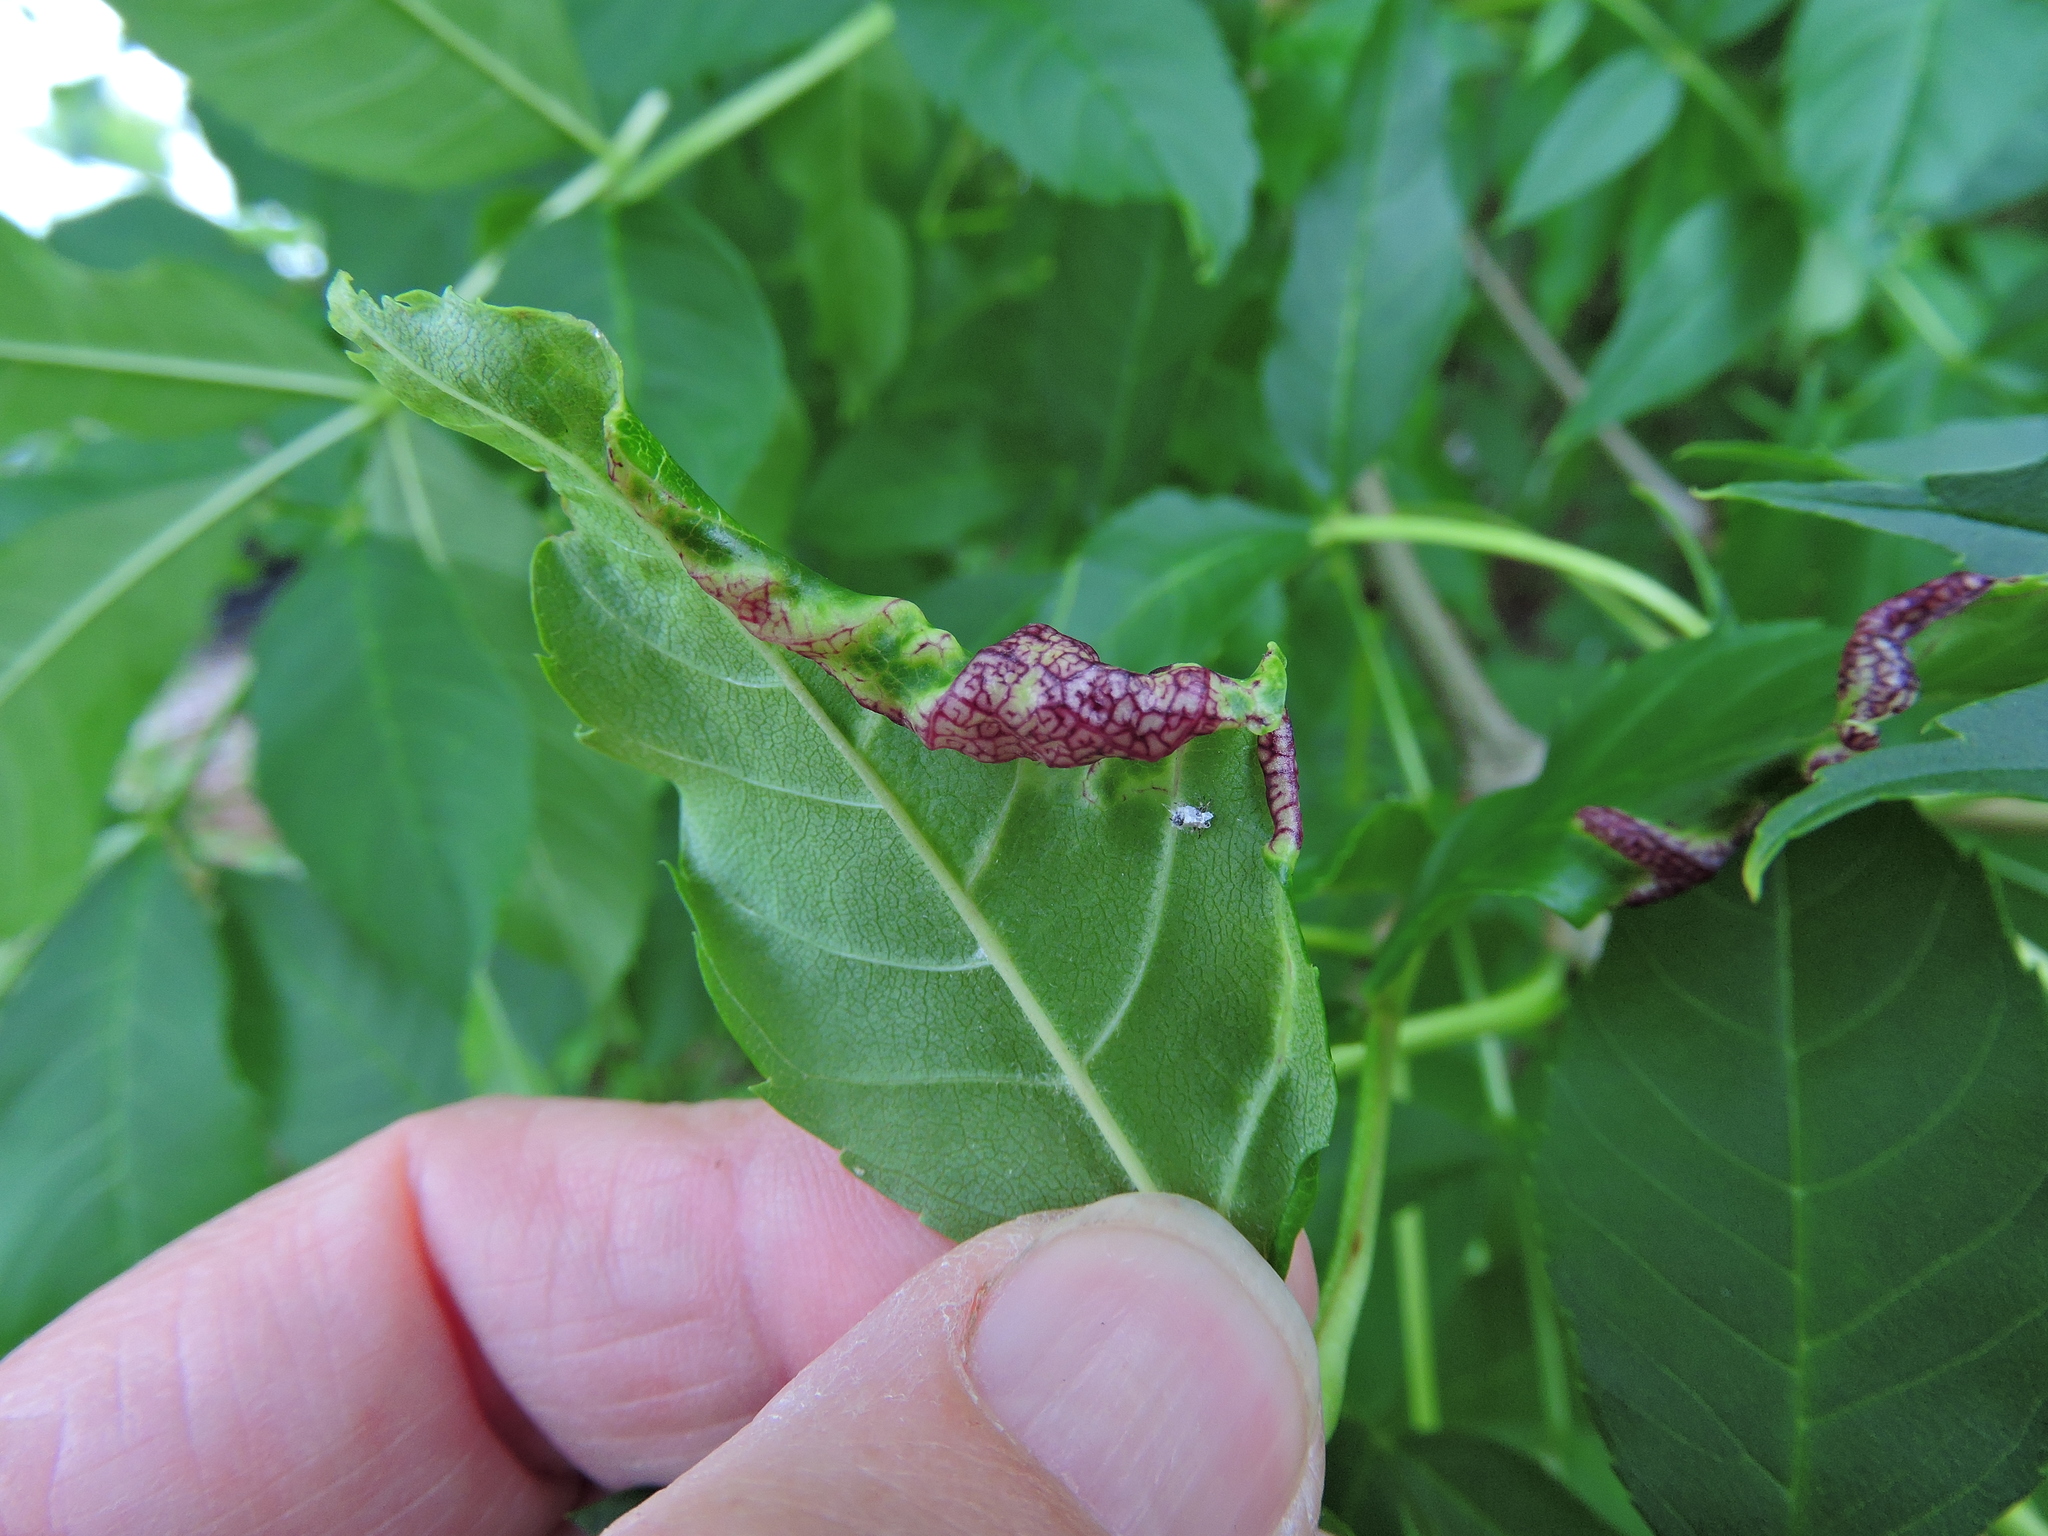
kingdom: Animalia
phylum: Arthropoda
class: Insecta
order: Hemiptera
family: Liviidae
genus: Psyllopsis
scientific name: Psyllopsis fraxini
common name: Jumping plant louse
